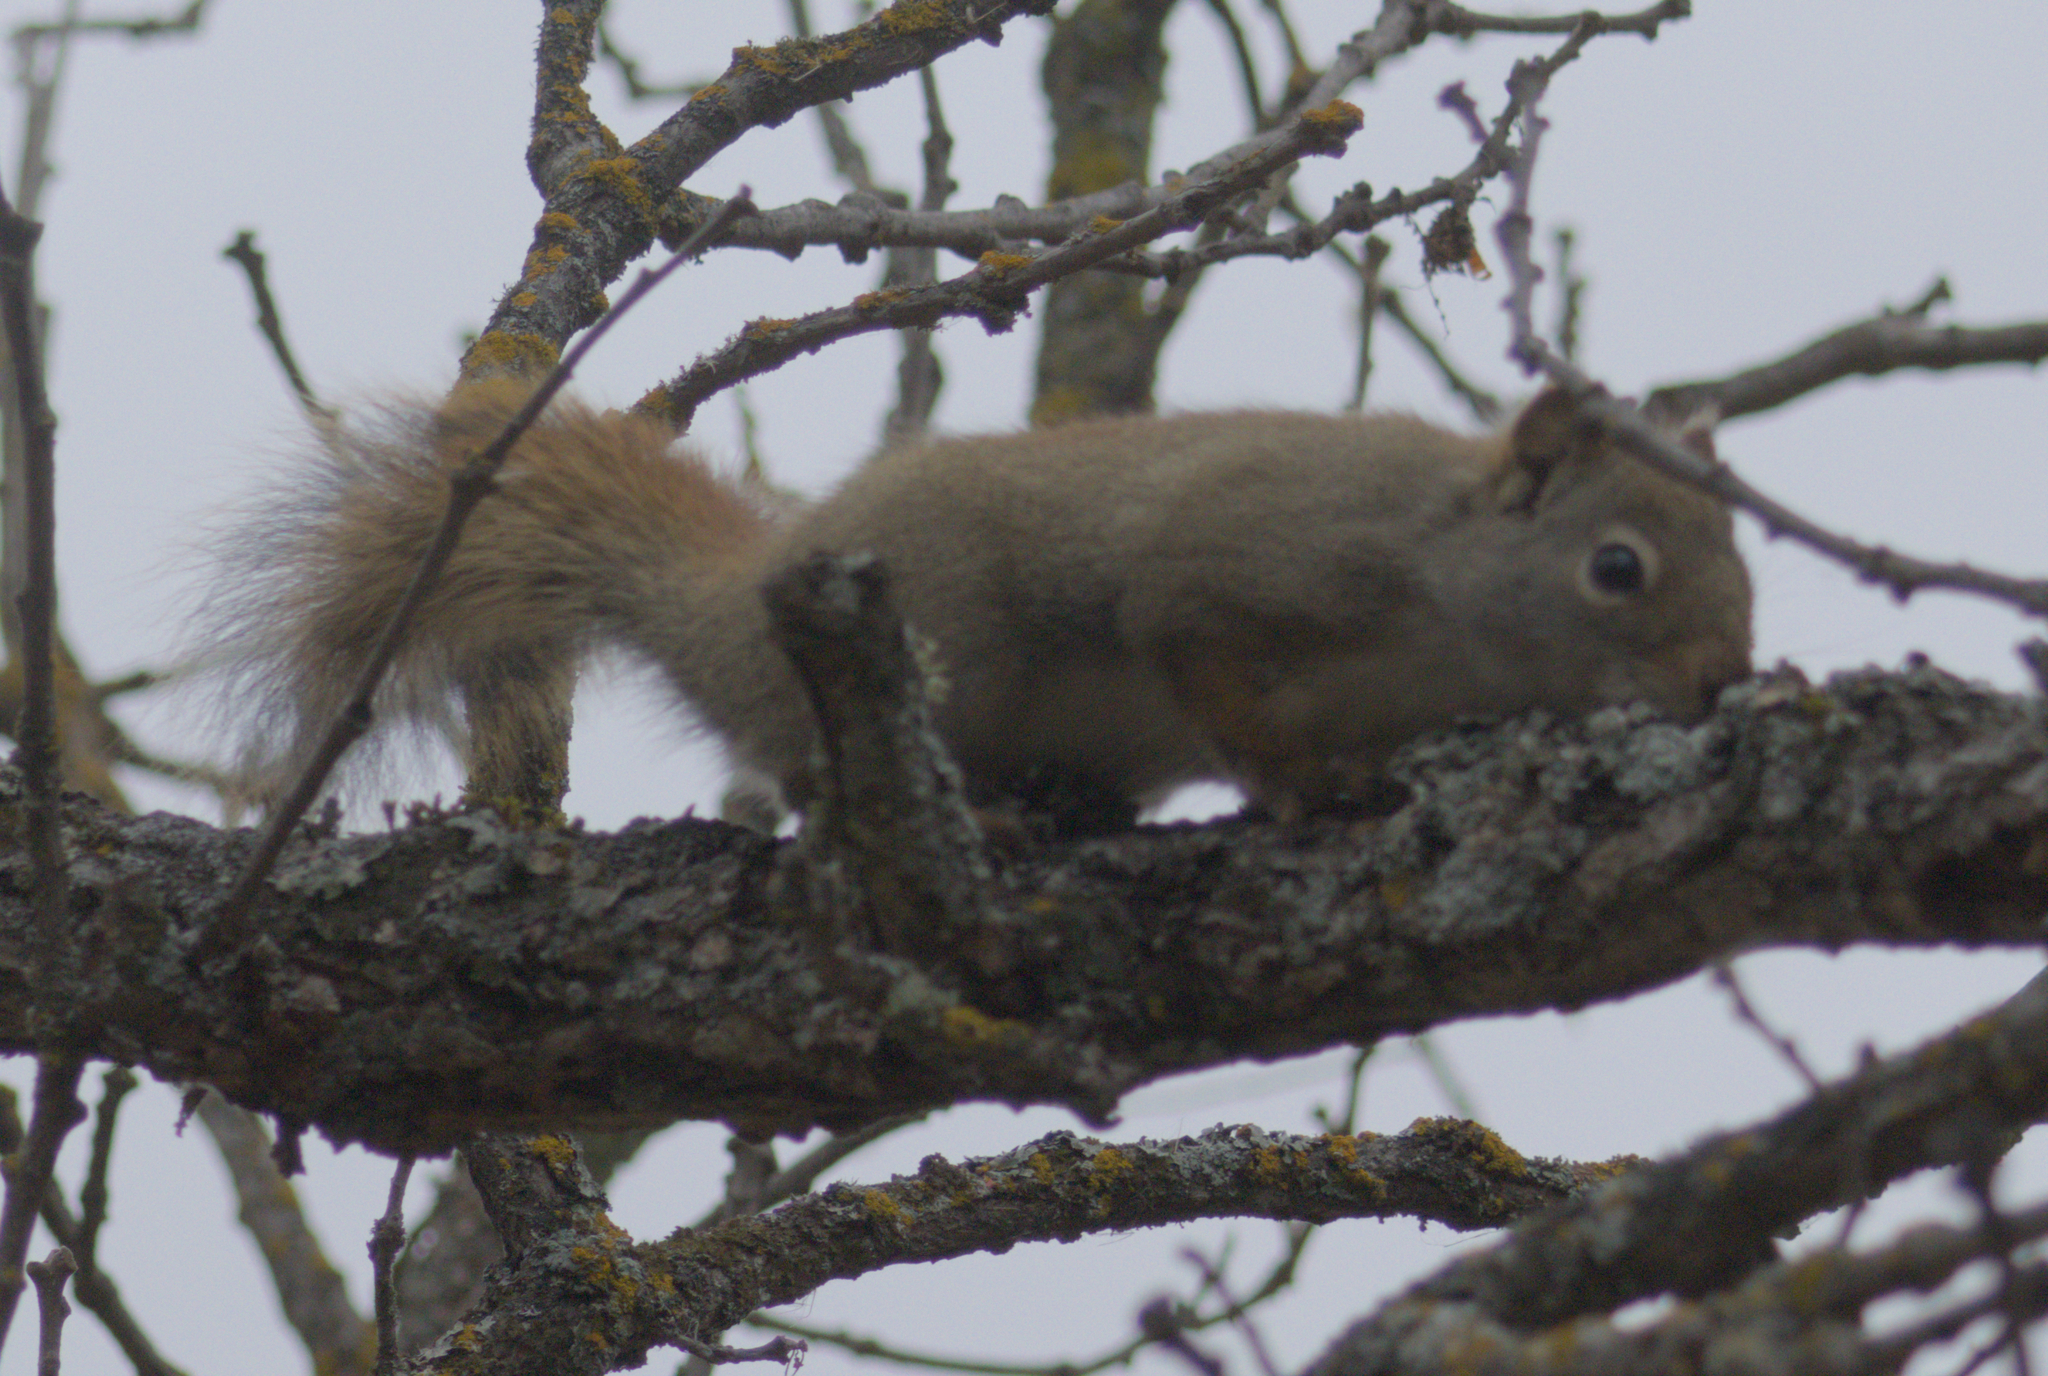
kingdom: Animalia
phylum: Chordata
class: Mammalia
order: Rodentia
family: Sciuridae
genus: Tamiasciurus
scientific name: Tamiasciurus hudsonicus
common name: Red squirrel
